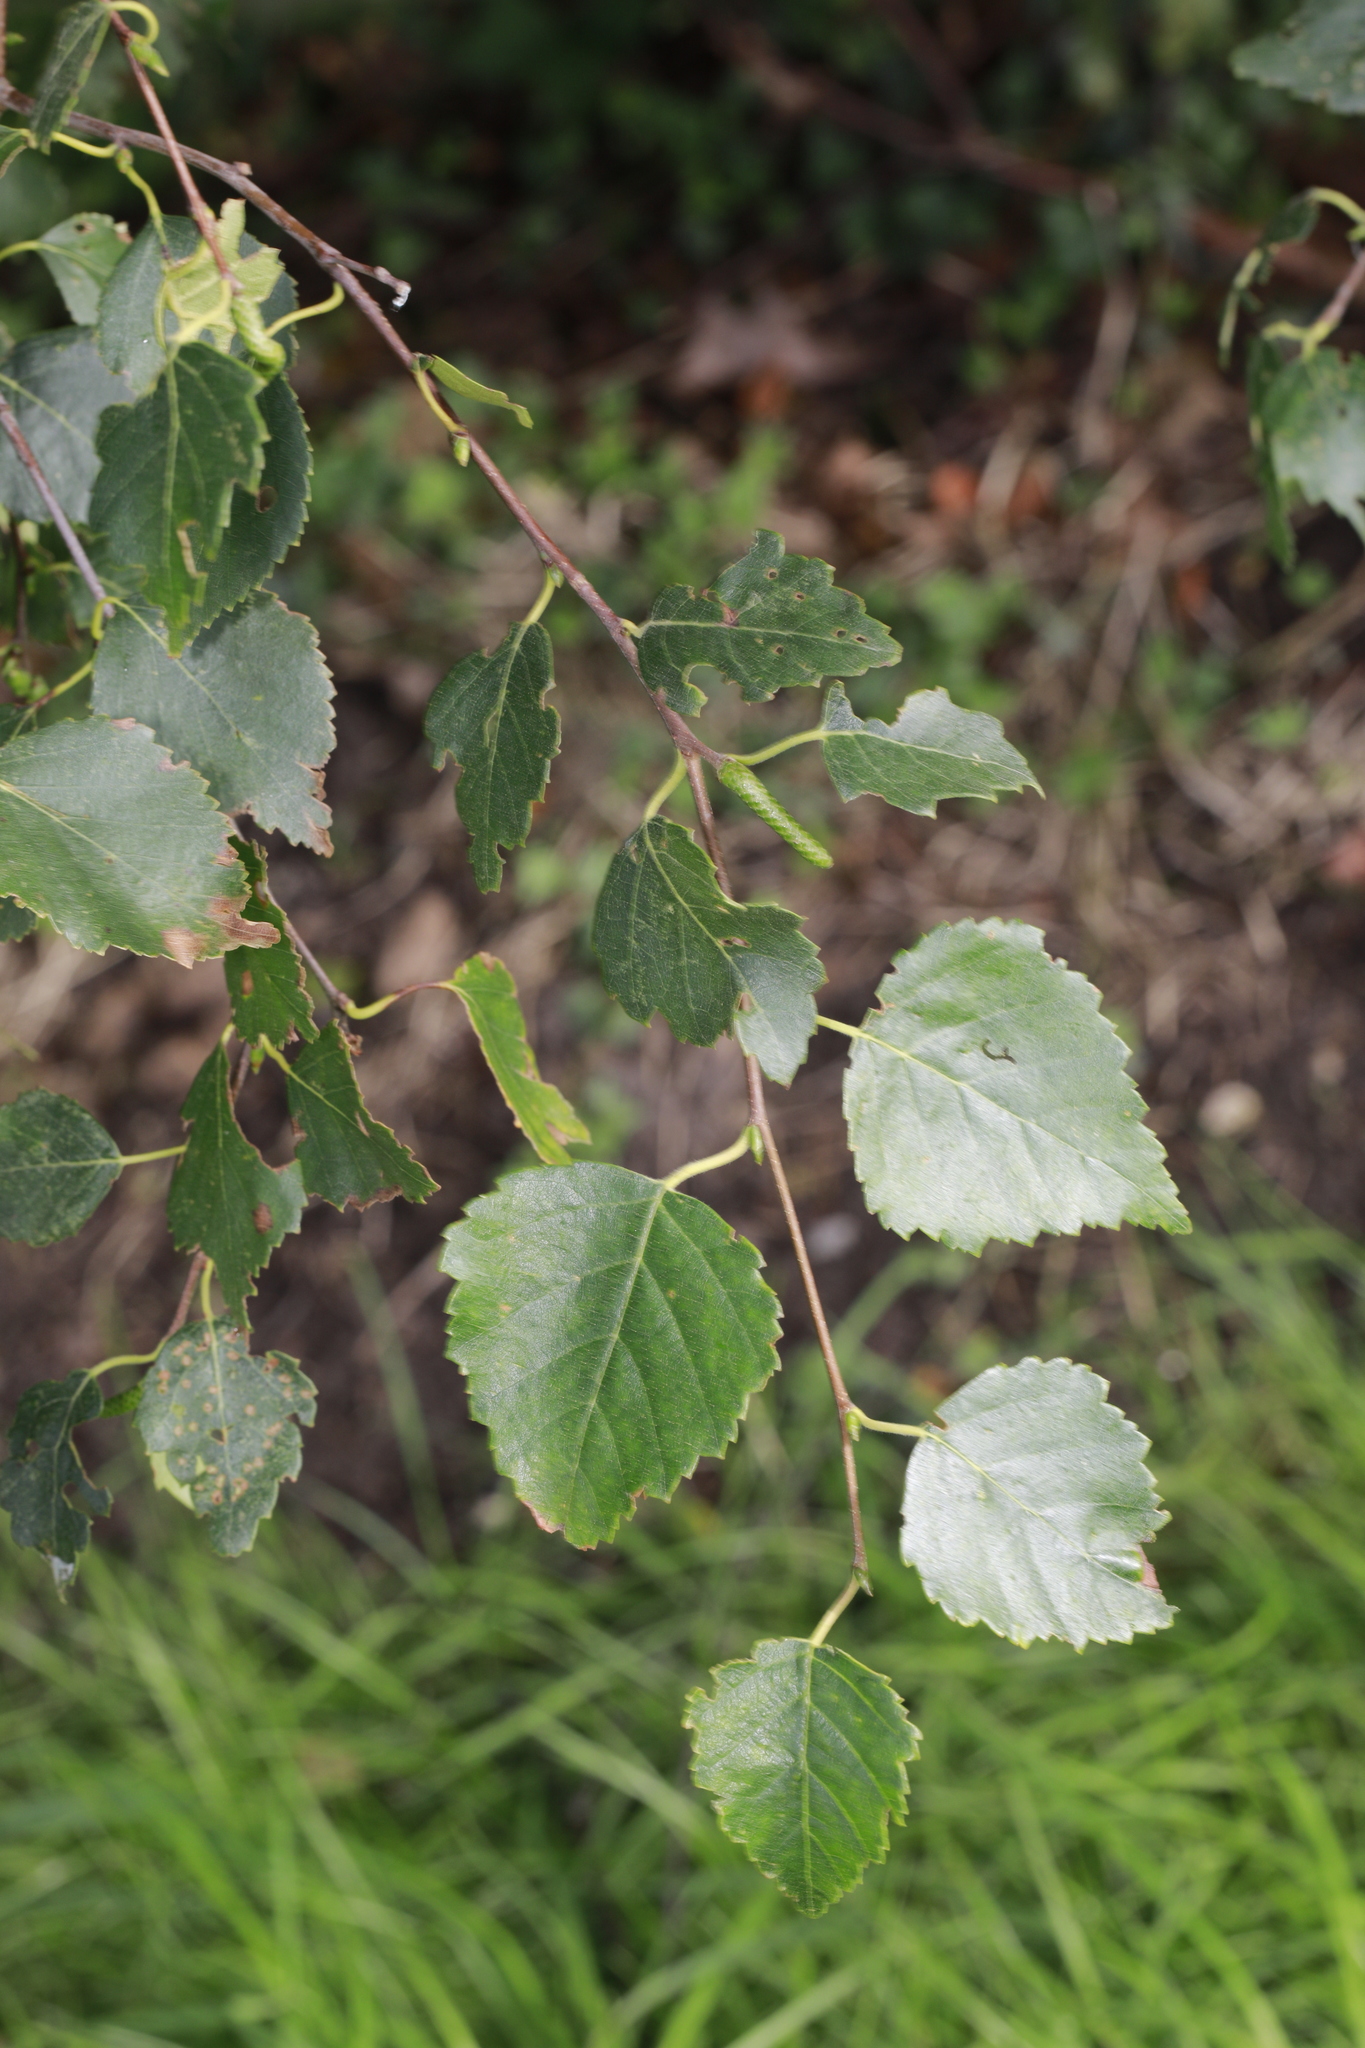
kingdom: Plantae
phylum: Tracheophyta
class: Magnoliopsida
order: Fagales
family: Betulaceae
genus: Betula
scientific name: Betula pendula
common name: Silver birch
